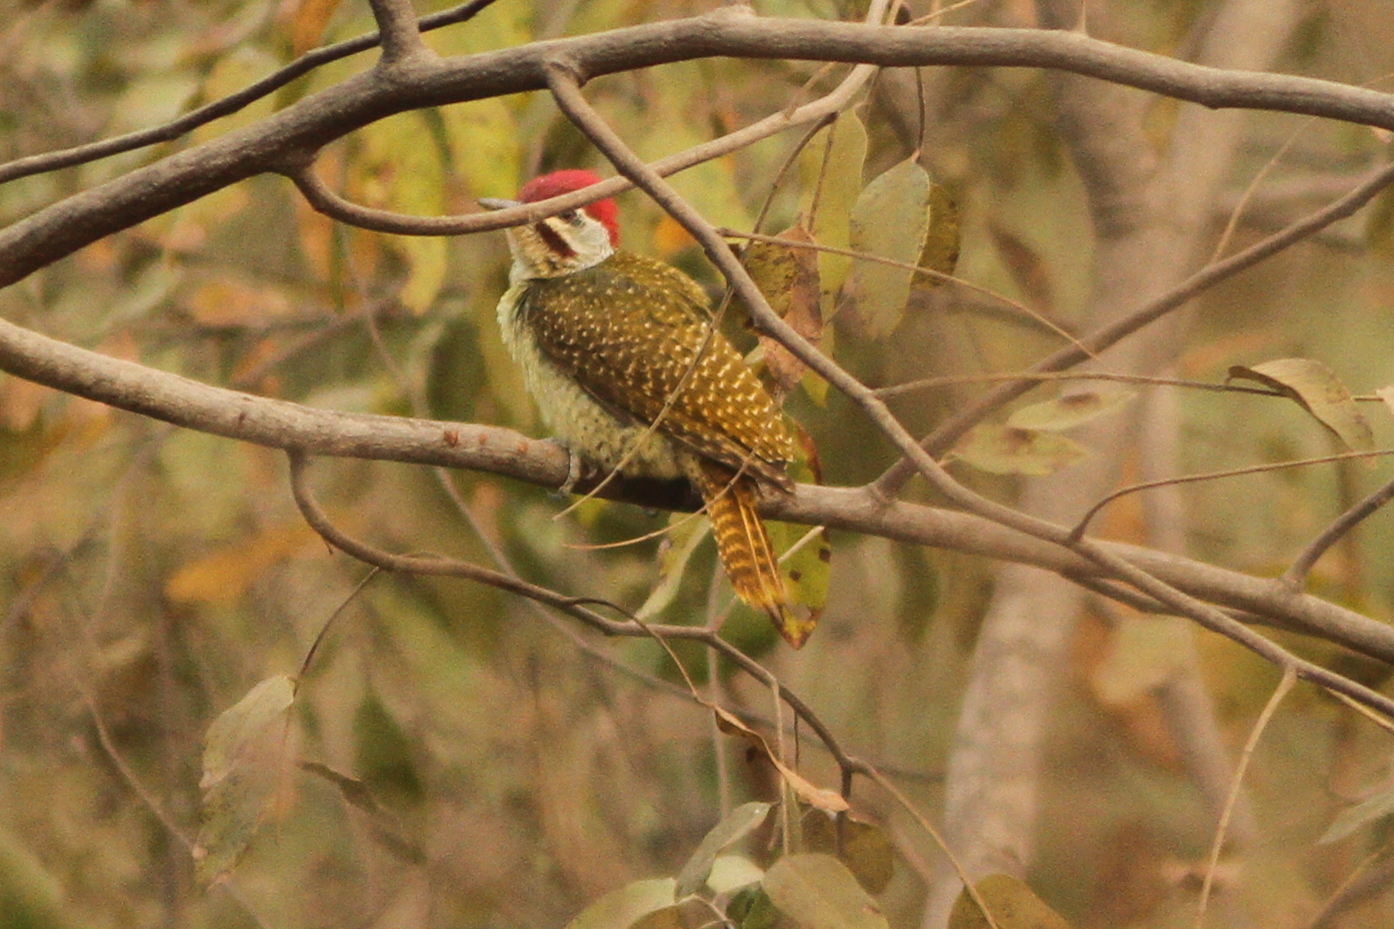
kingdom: Animalia
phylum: Chordata
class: Aves
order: Piciformes
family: Picidae
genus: Campethera
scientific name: Campethera punctuligera
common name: Fine-spotted woodpecker
